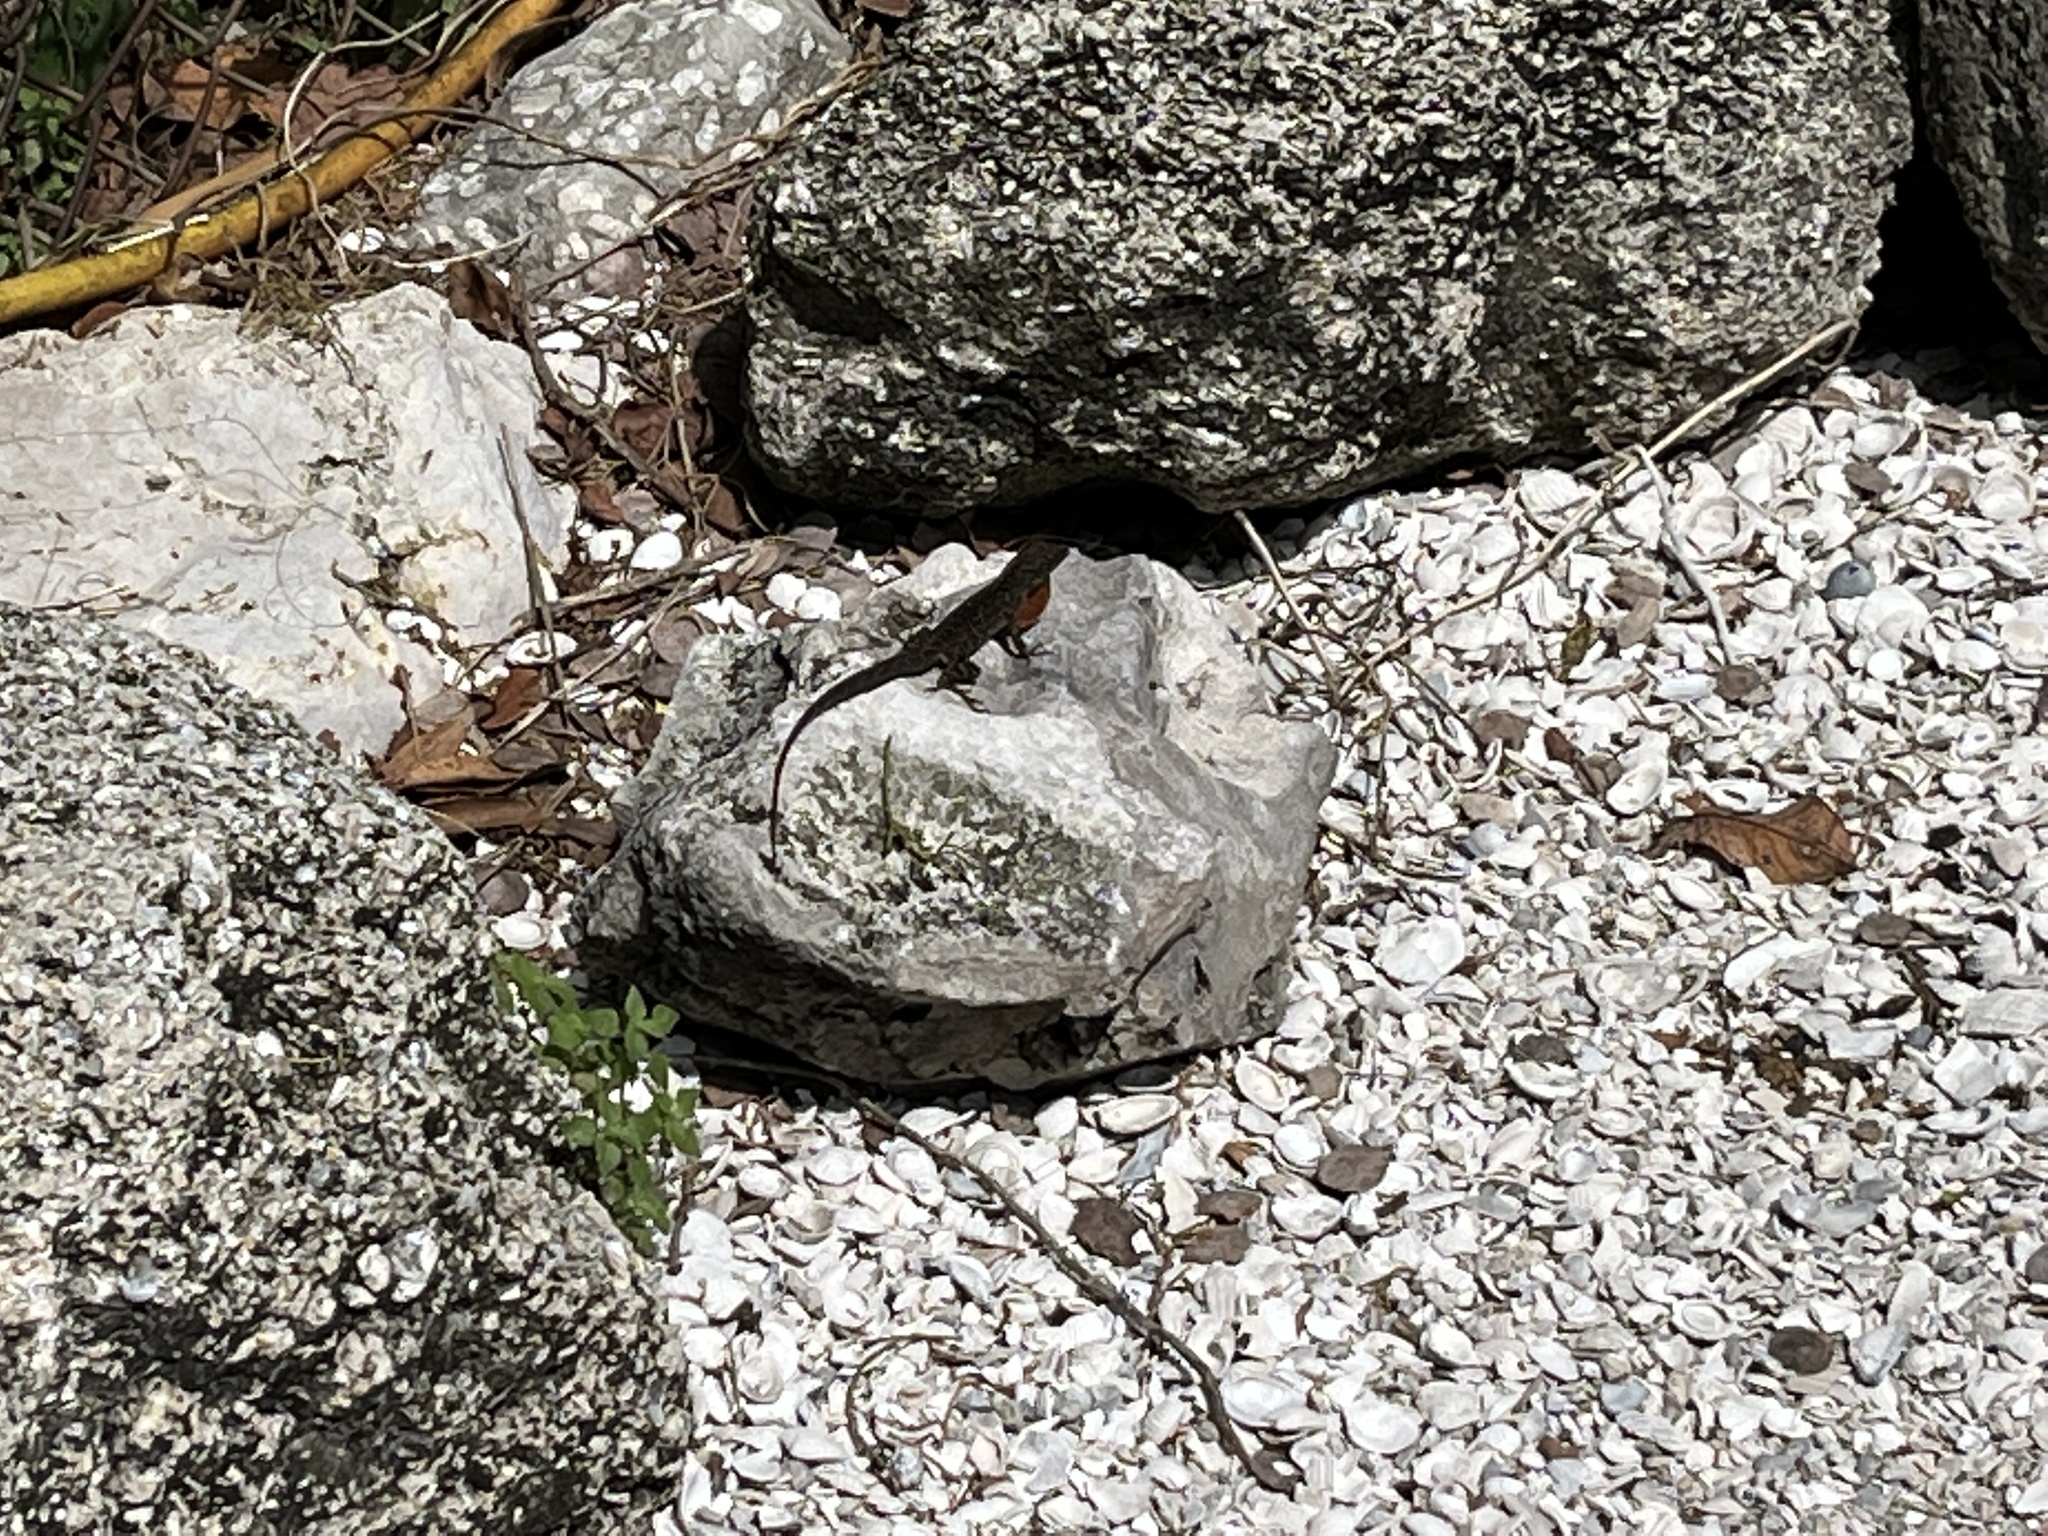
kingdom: Animalia
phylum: Chordata
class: Squamata
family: Dactyloidae
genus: Anolis
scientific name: Anolis sagrei
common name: Brown anole
